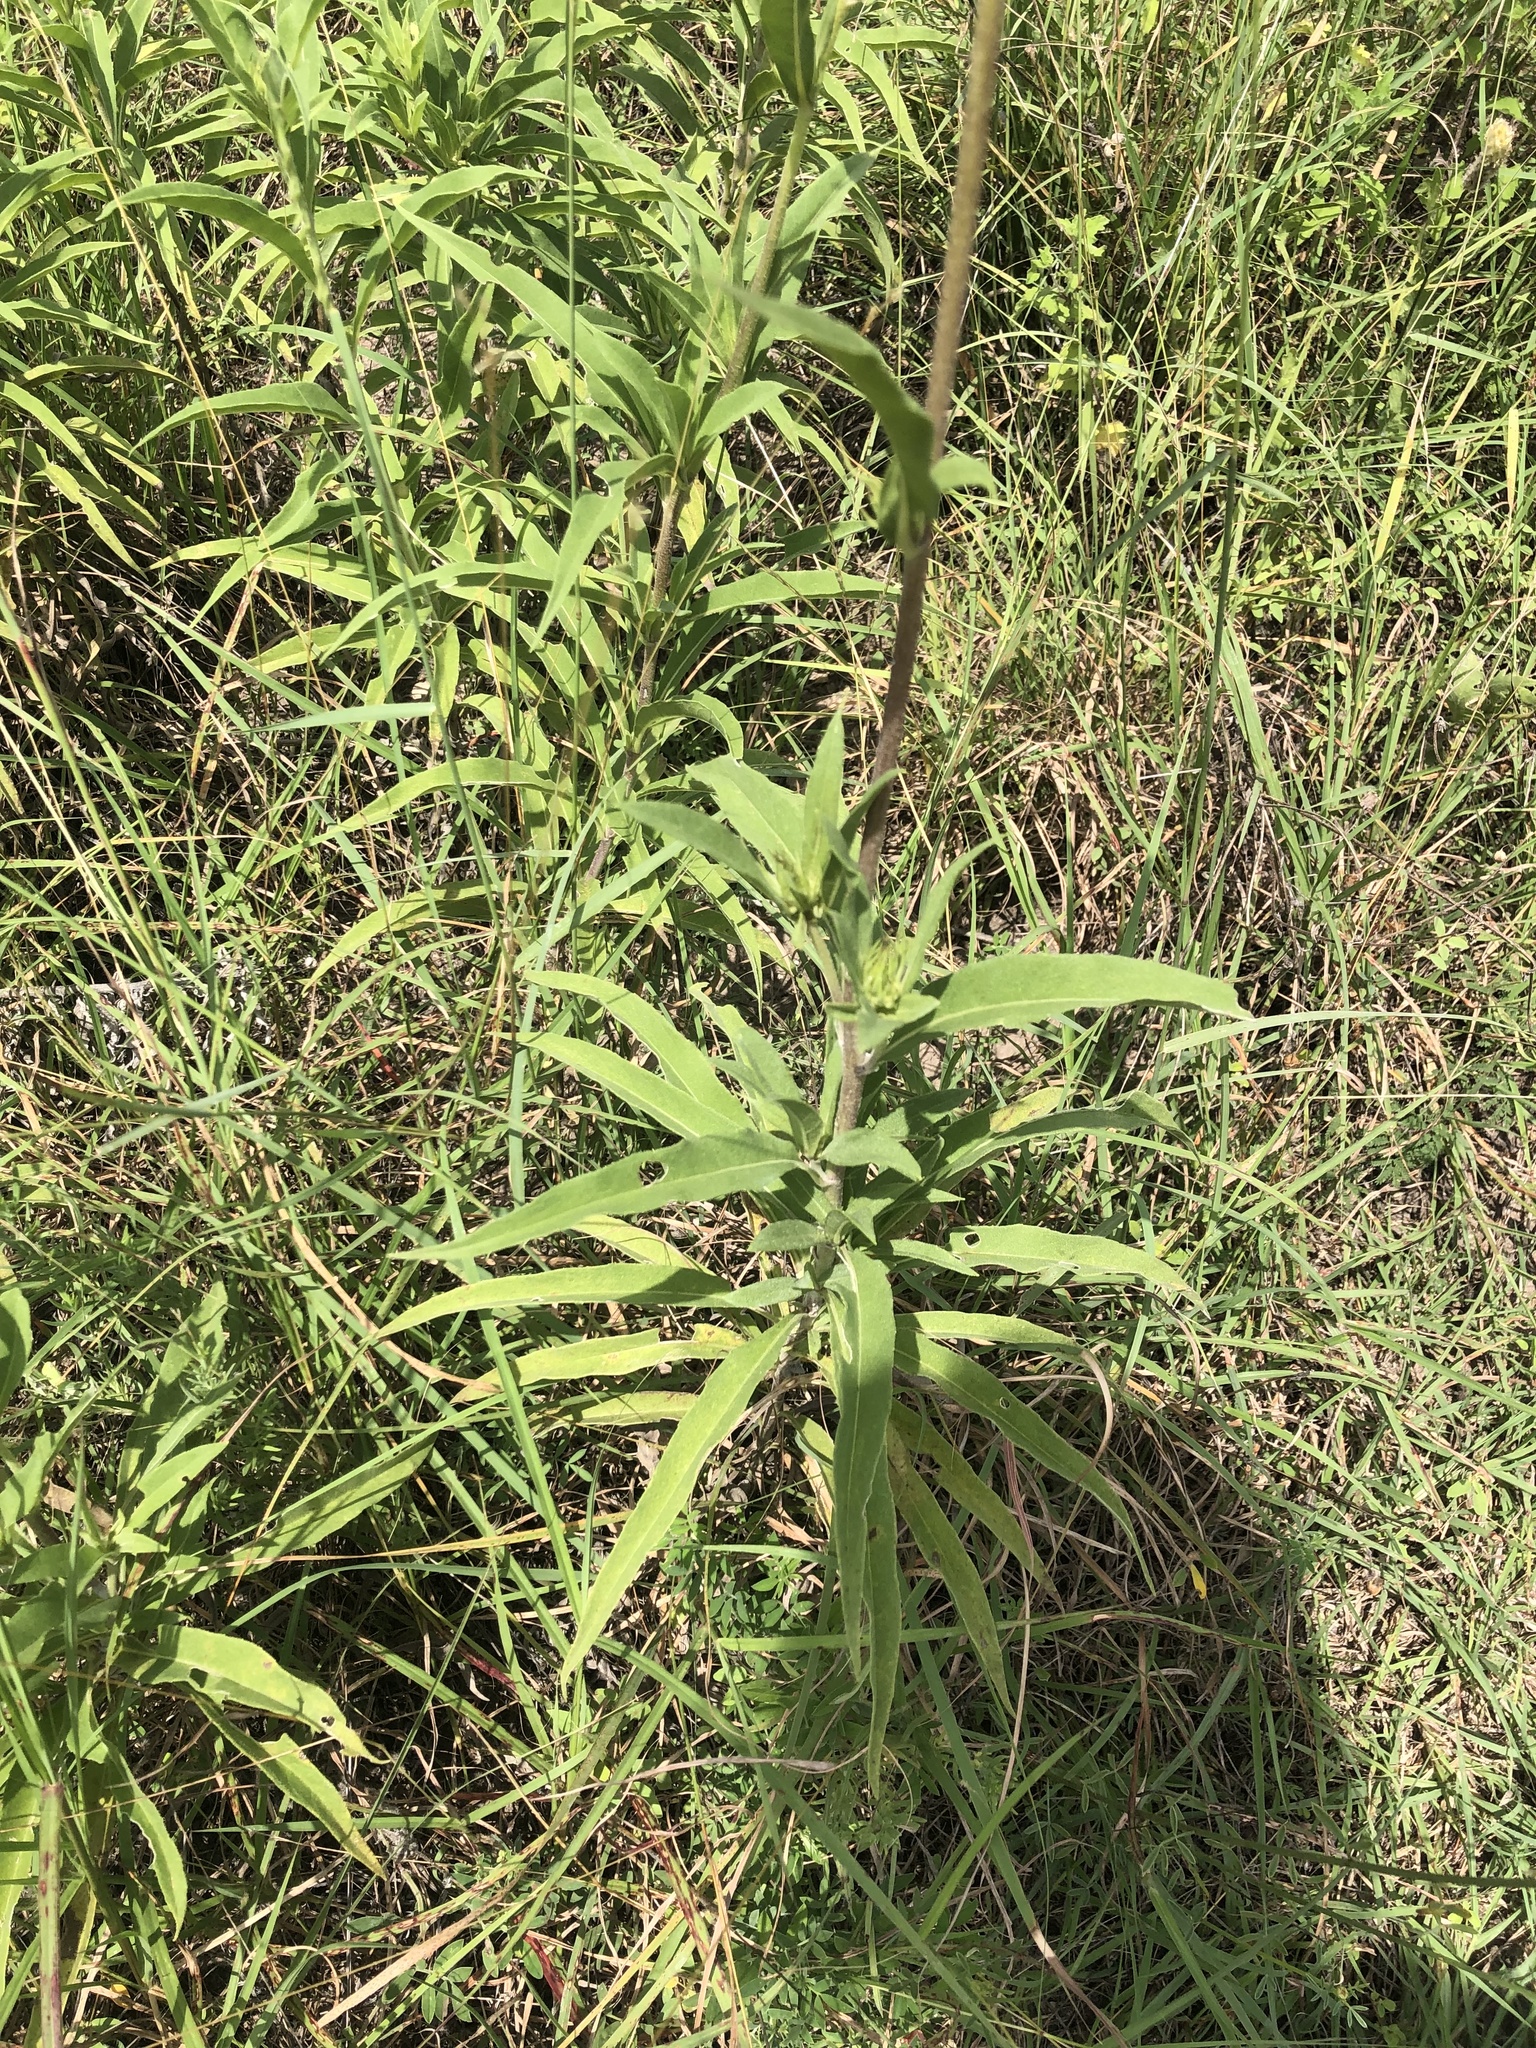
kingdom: Plantae
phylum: Tracheophyta
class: Magnoliopsida
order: Asterales
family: Asteraceae
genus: Helianthus
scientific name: Helianthus maximiliani
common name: Maximilian's sunflower
